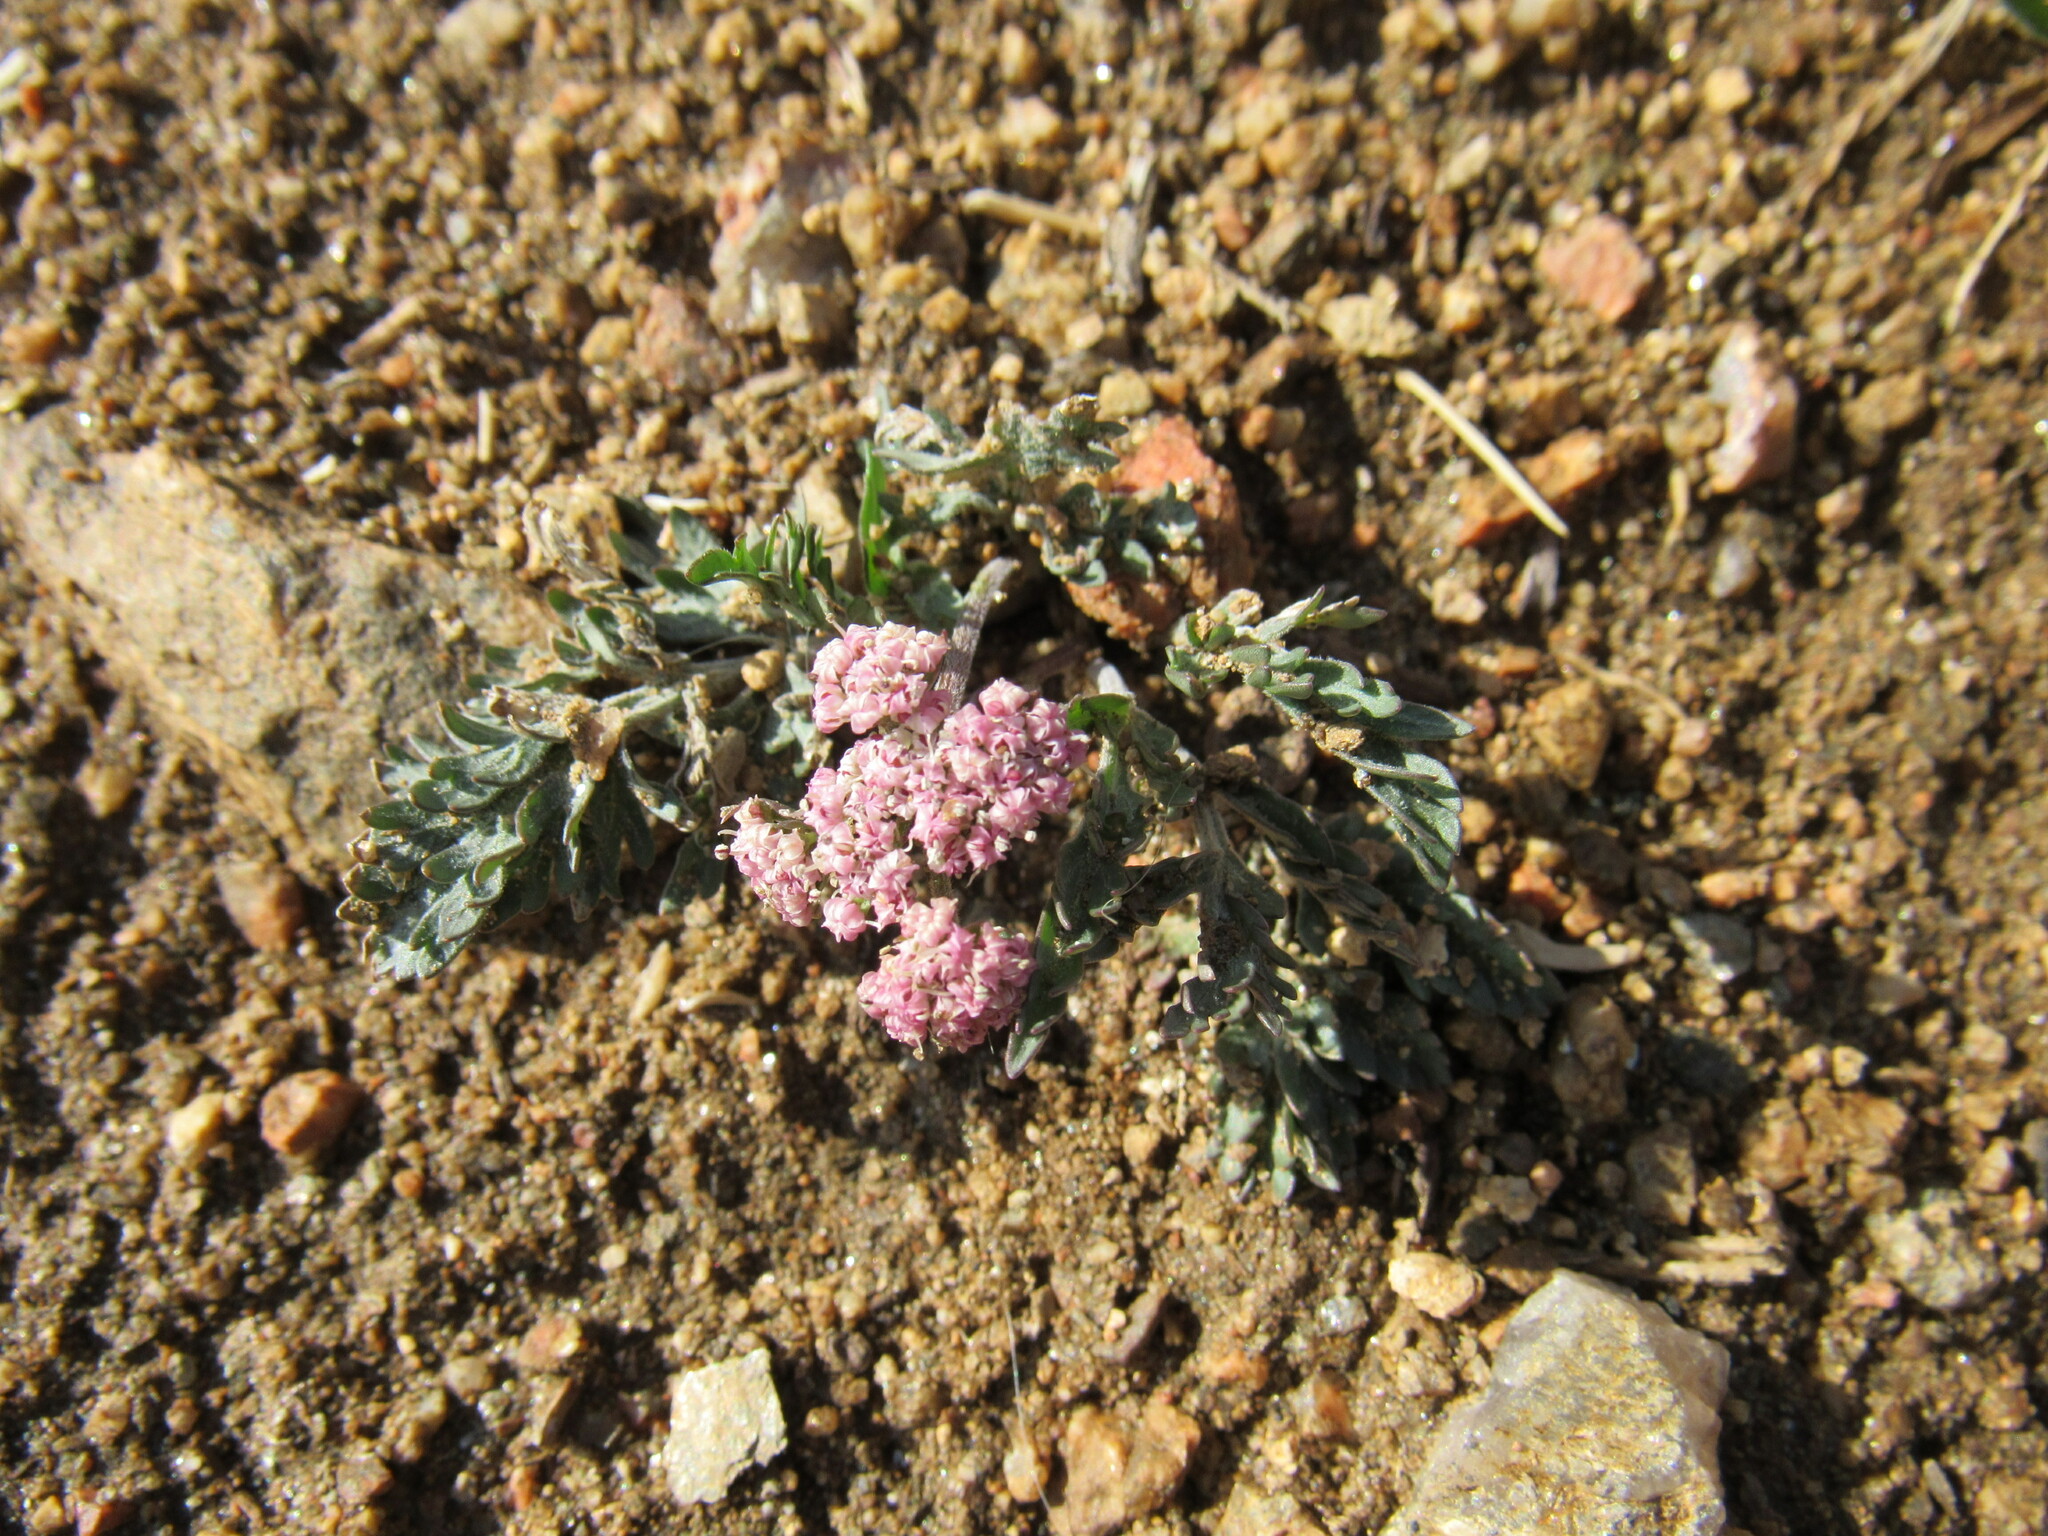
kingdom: Plantae
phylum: Tracheophyta
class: Magnoliopsida
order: Apiales
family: Apiaceae
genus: Lomatium
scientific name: Lomatium orientale
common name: Eastern cous
